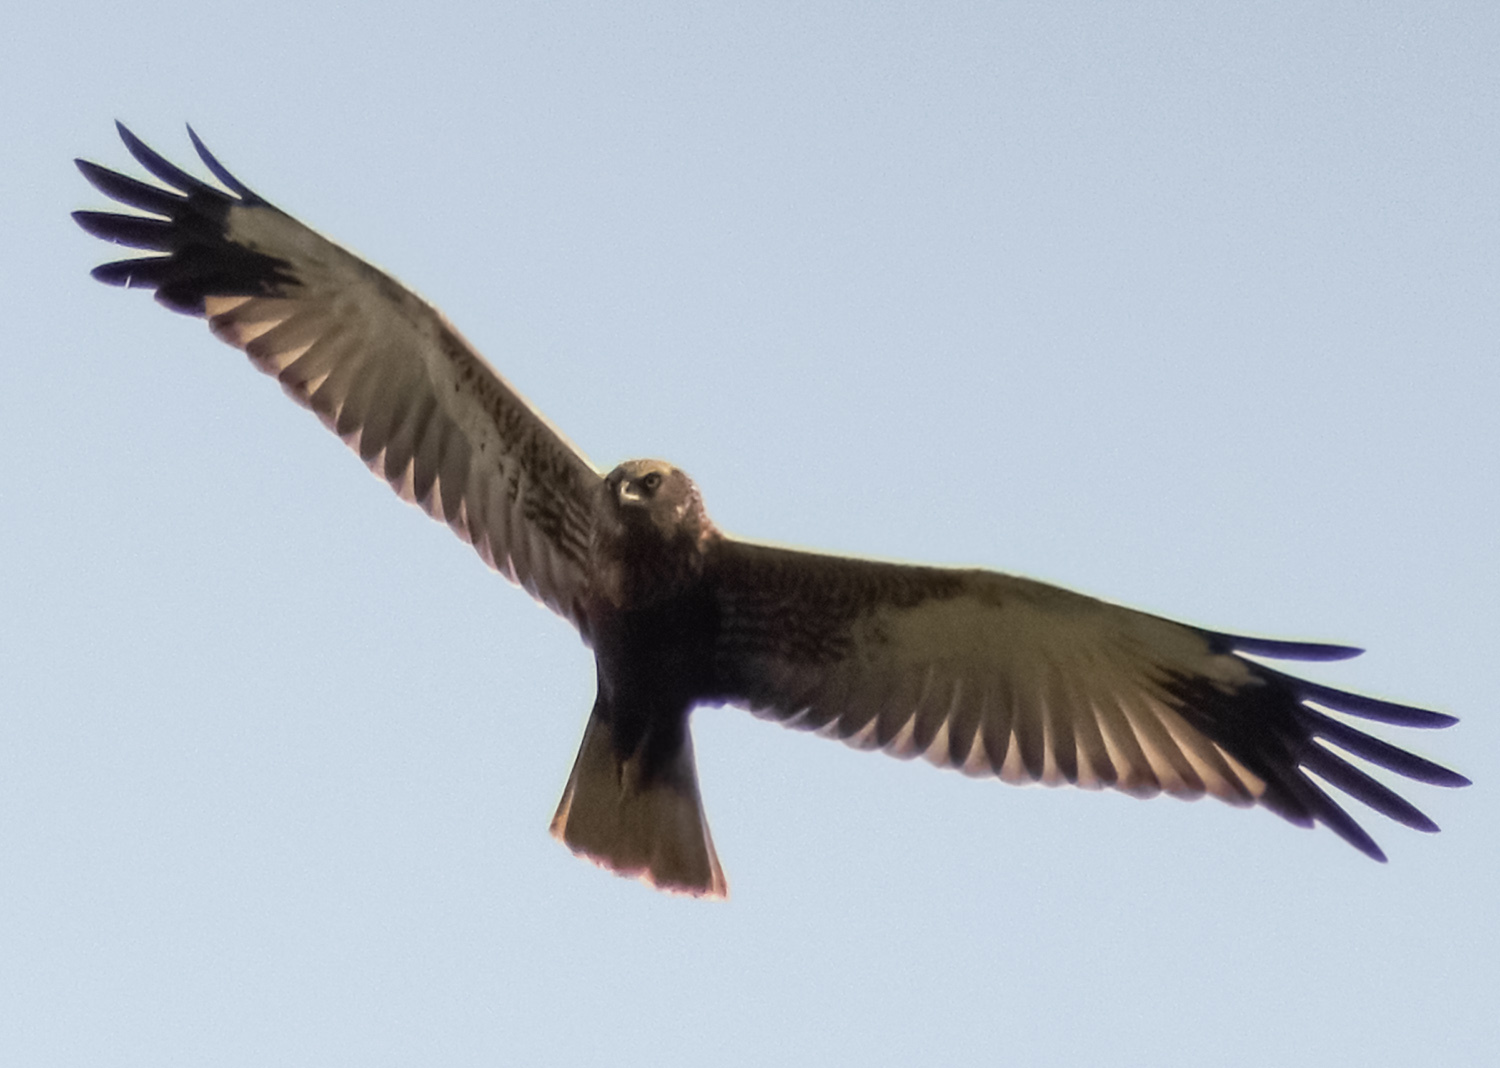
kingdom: Animalia
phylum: Chordata
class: Aves
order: Accipitriformes
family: Accipitridae
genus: Circus
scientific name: Circus aeruginosus
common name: Western marsh harrier
